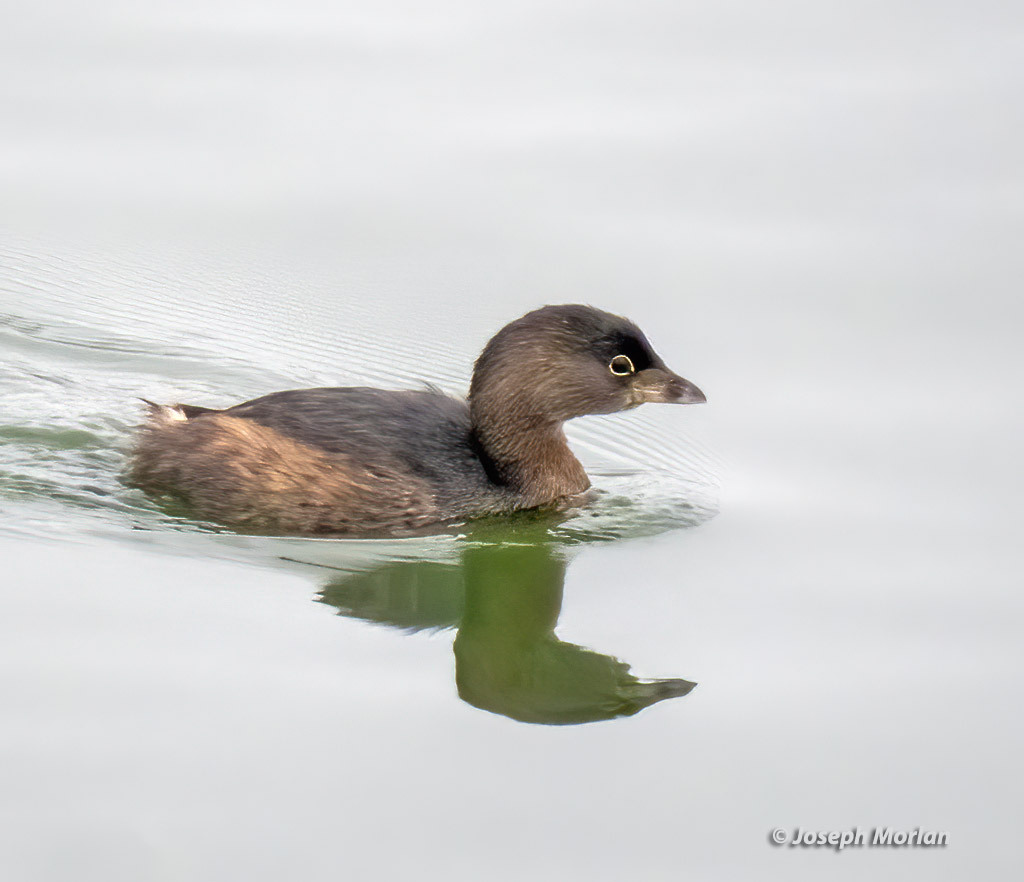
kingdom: Animalia
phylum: Chordata
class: Aves
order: Podicipediformes
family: Podicipedidae
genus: Podilymbus
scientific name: Podilymbus podiceps
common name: Pied-billed grebe
